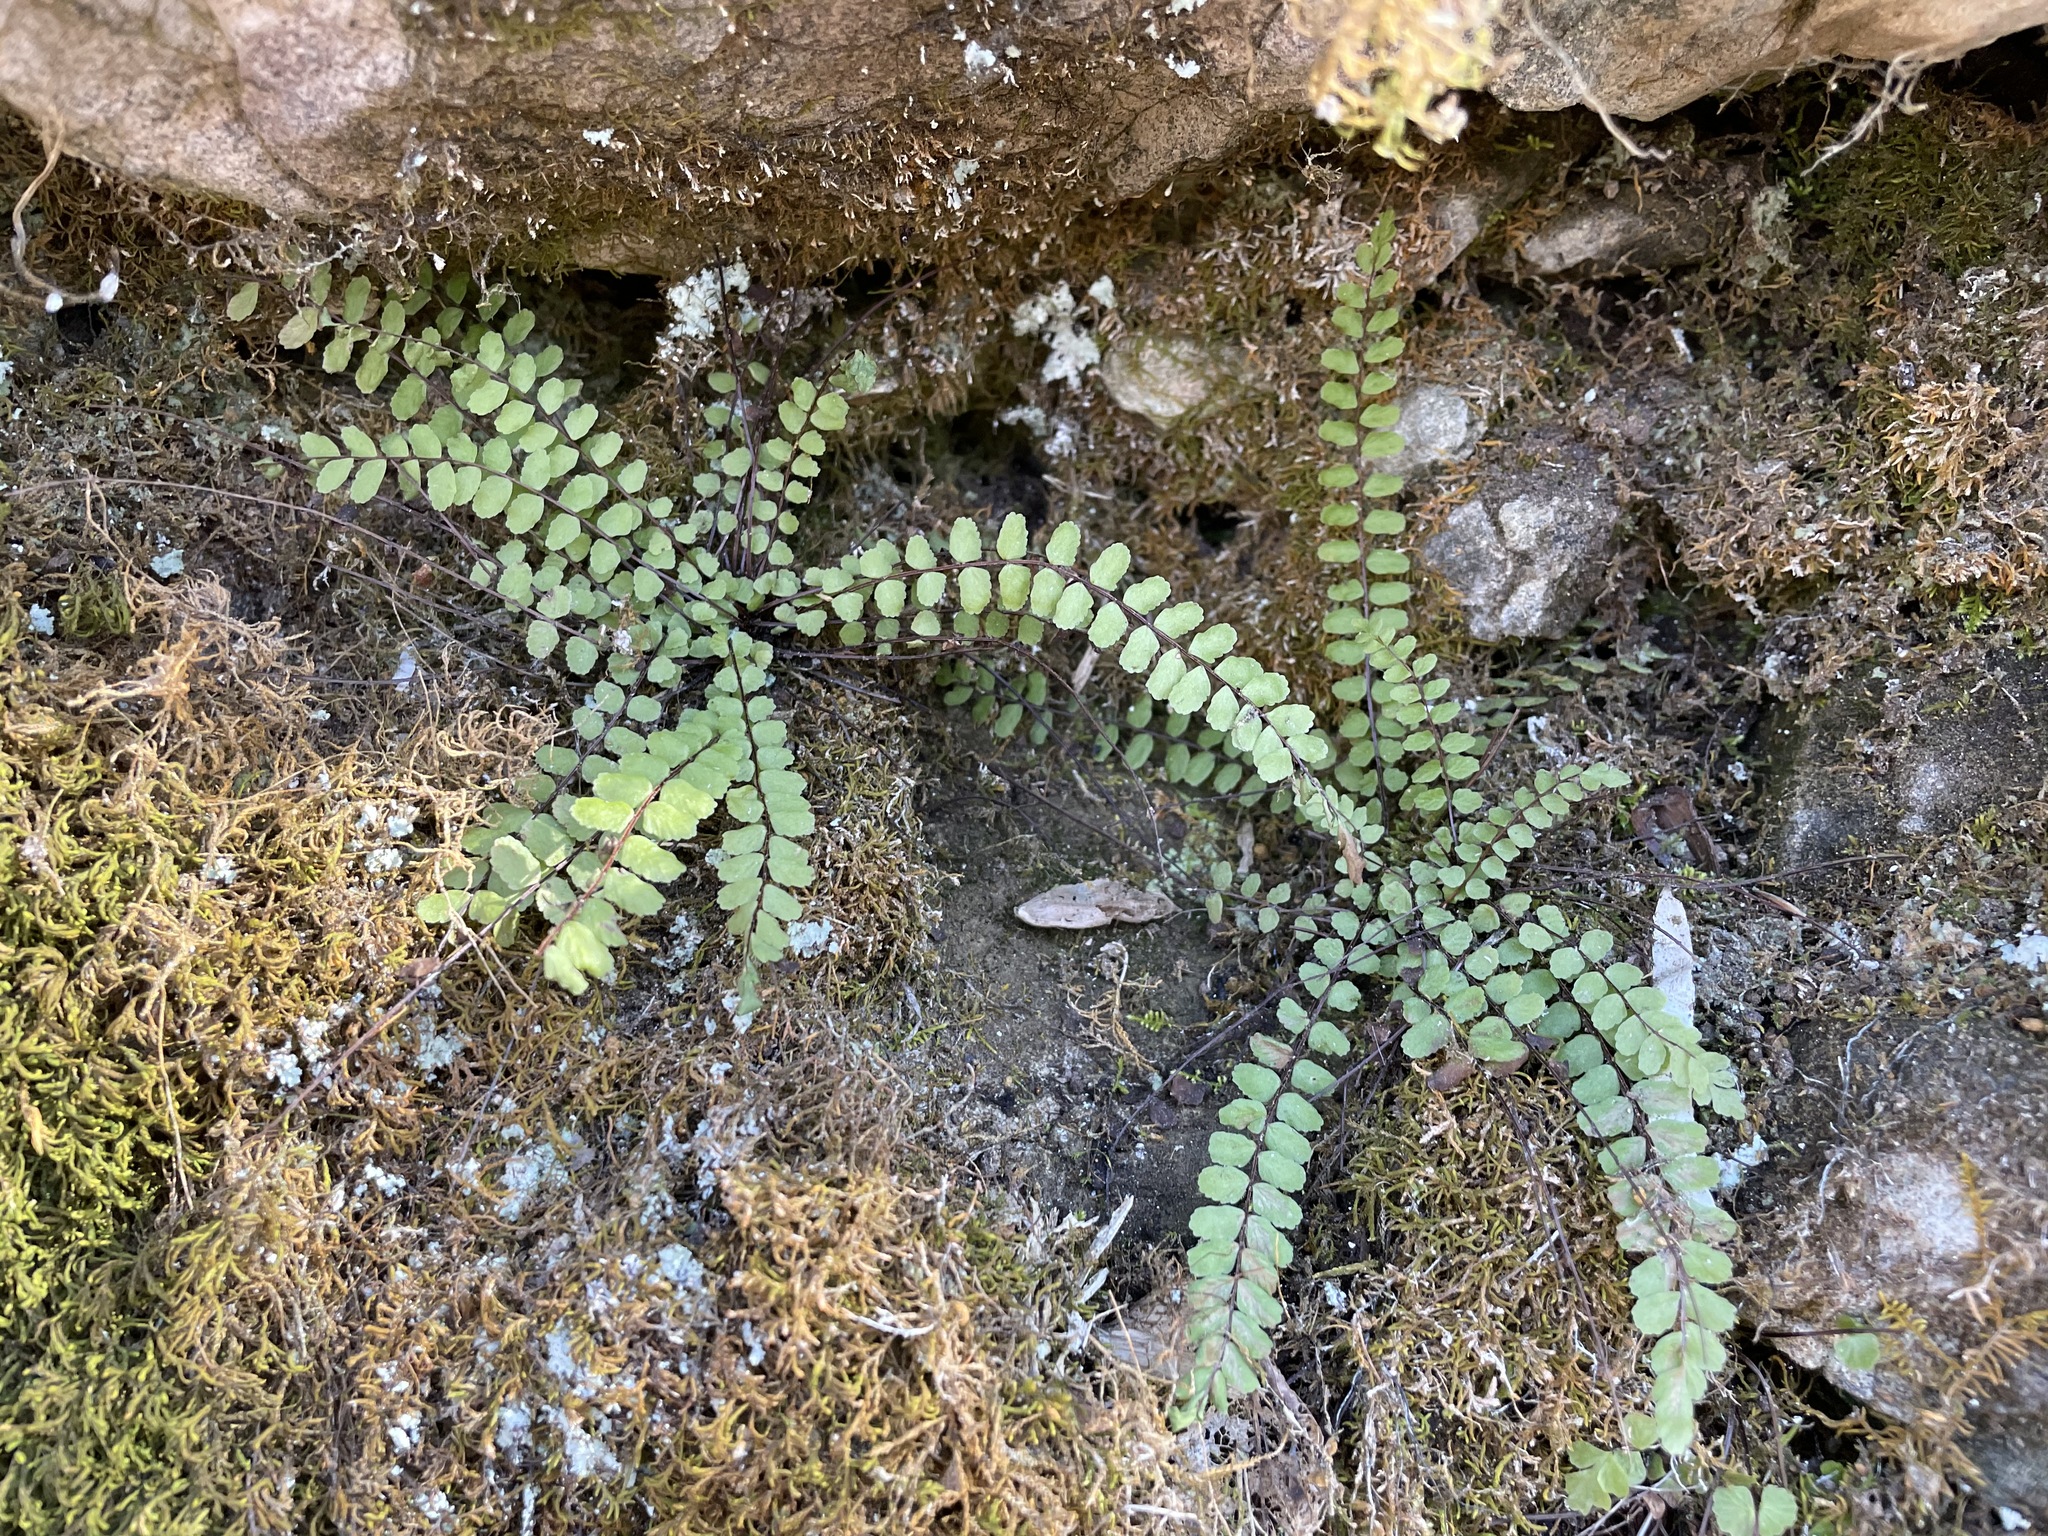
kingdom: Plantae
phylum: Tracheophyta
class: Polypodiopsida
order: Polypodiales
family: Aspleniaceae
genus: Asplenium
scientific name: Asplenium trichomanes
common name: Maidenhair spleenwort
